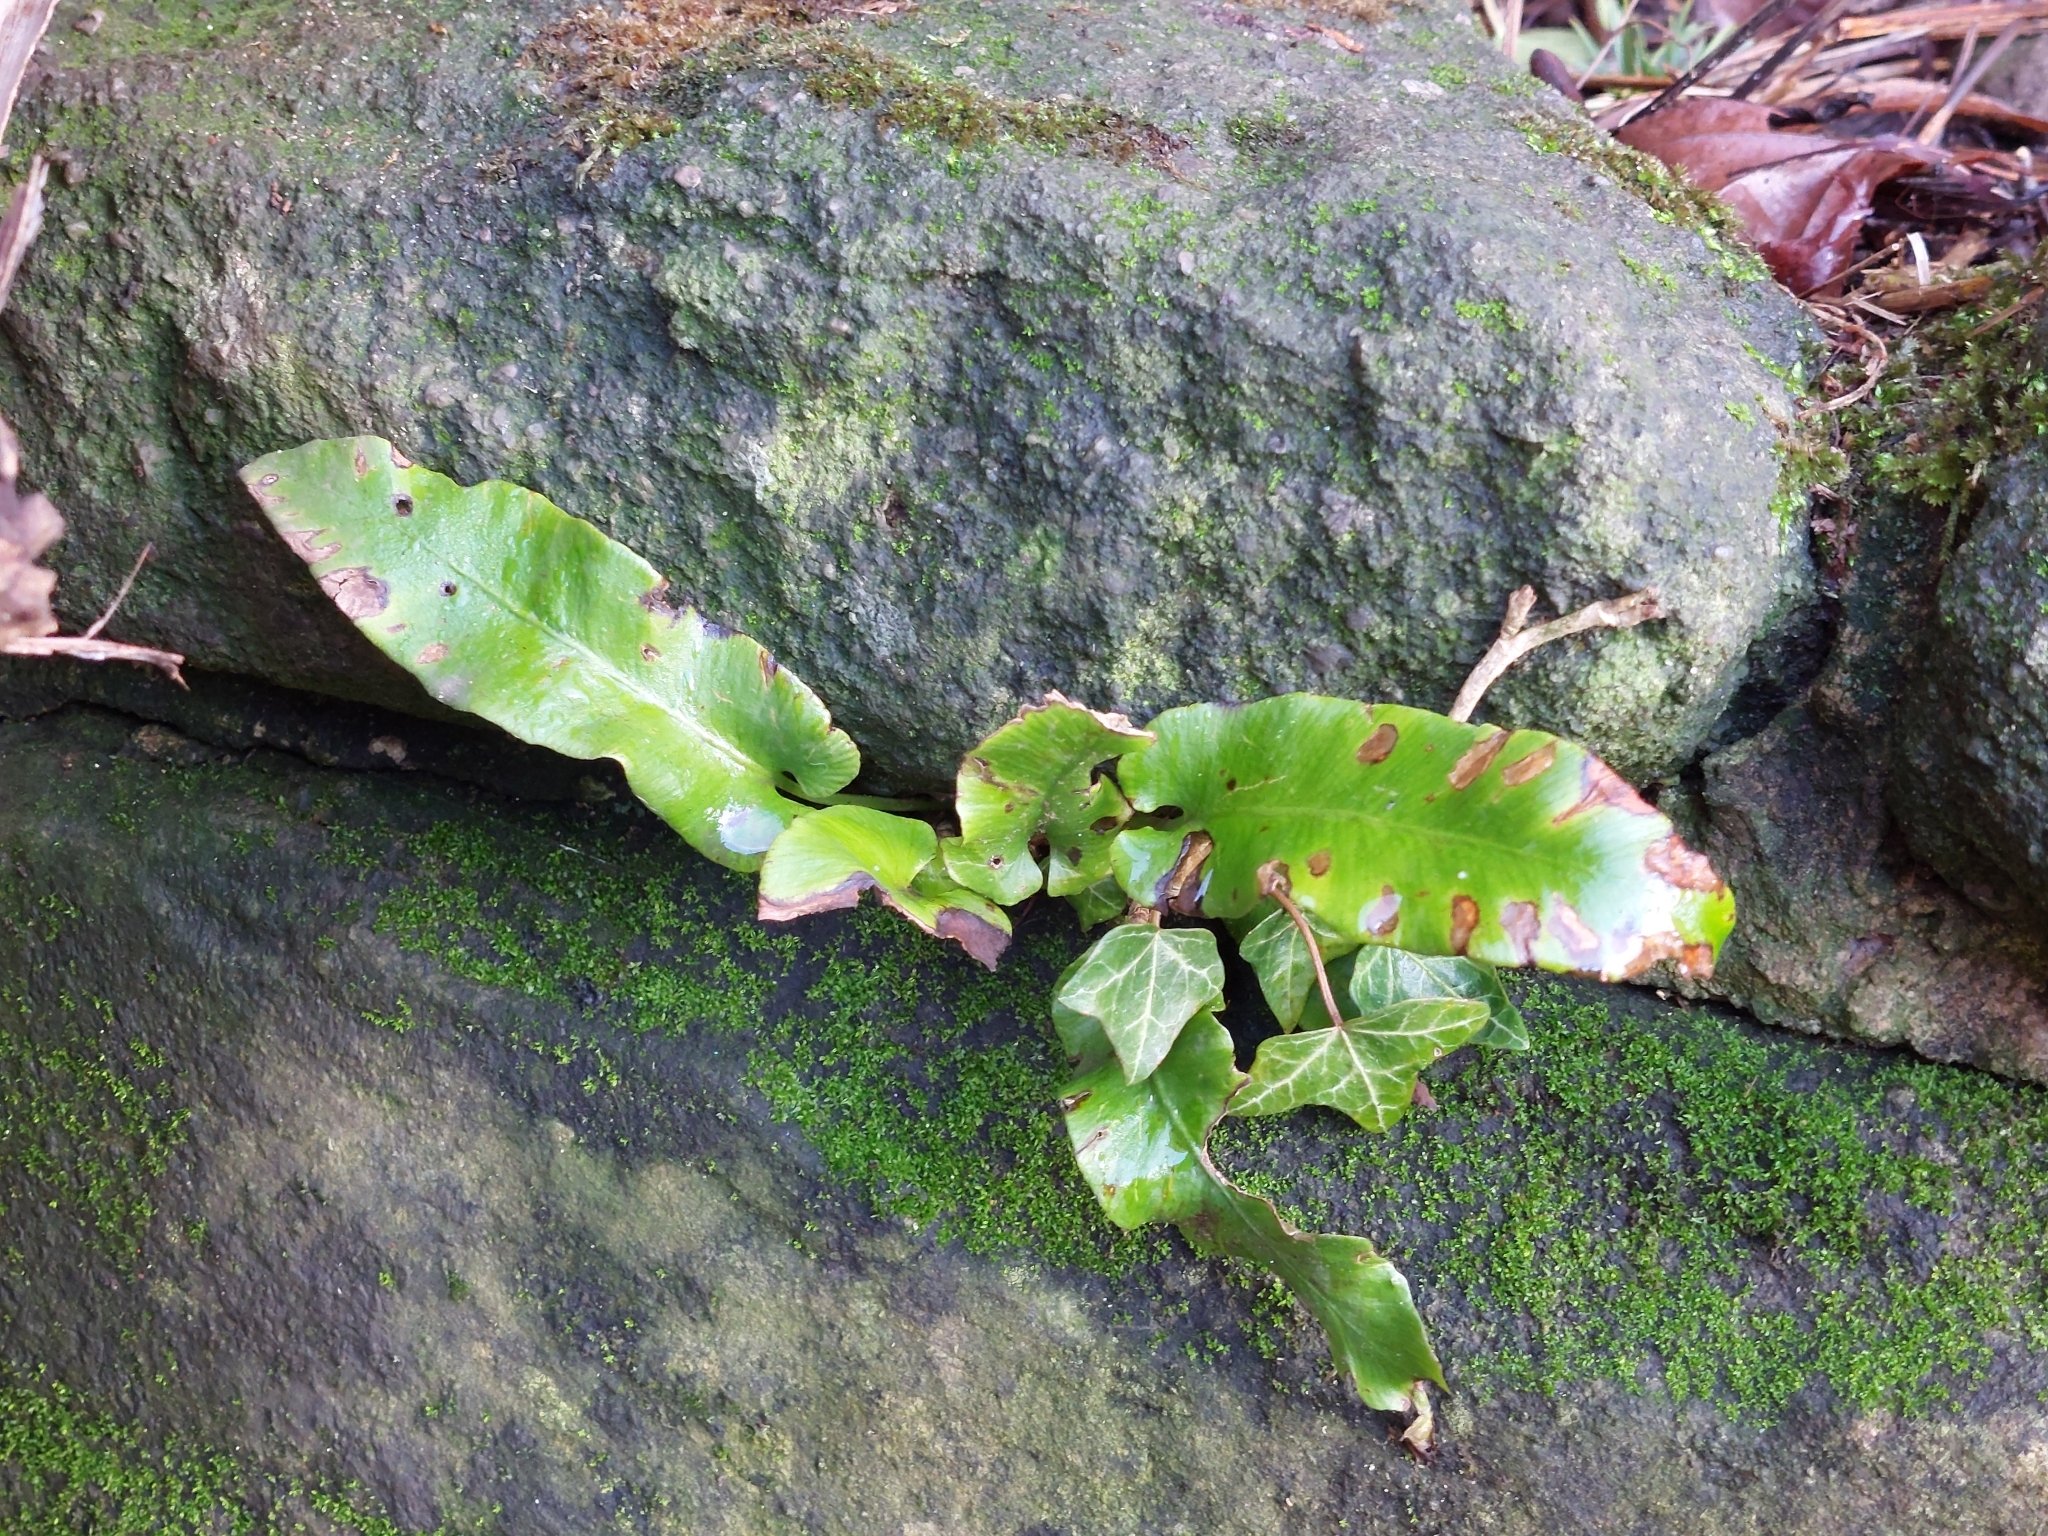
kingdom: Plantae
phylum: Tracheophyta
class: Polypodiopsida
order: Polypodiales
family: Aspleniaceae
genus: Asplenium
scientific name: Asplenium scolopendrium
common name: Hart's-tongue fern
